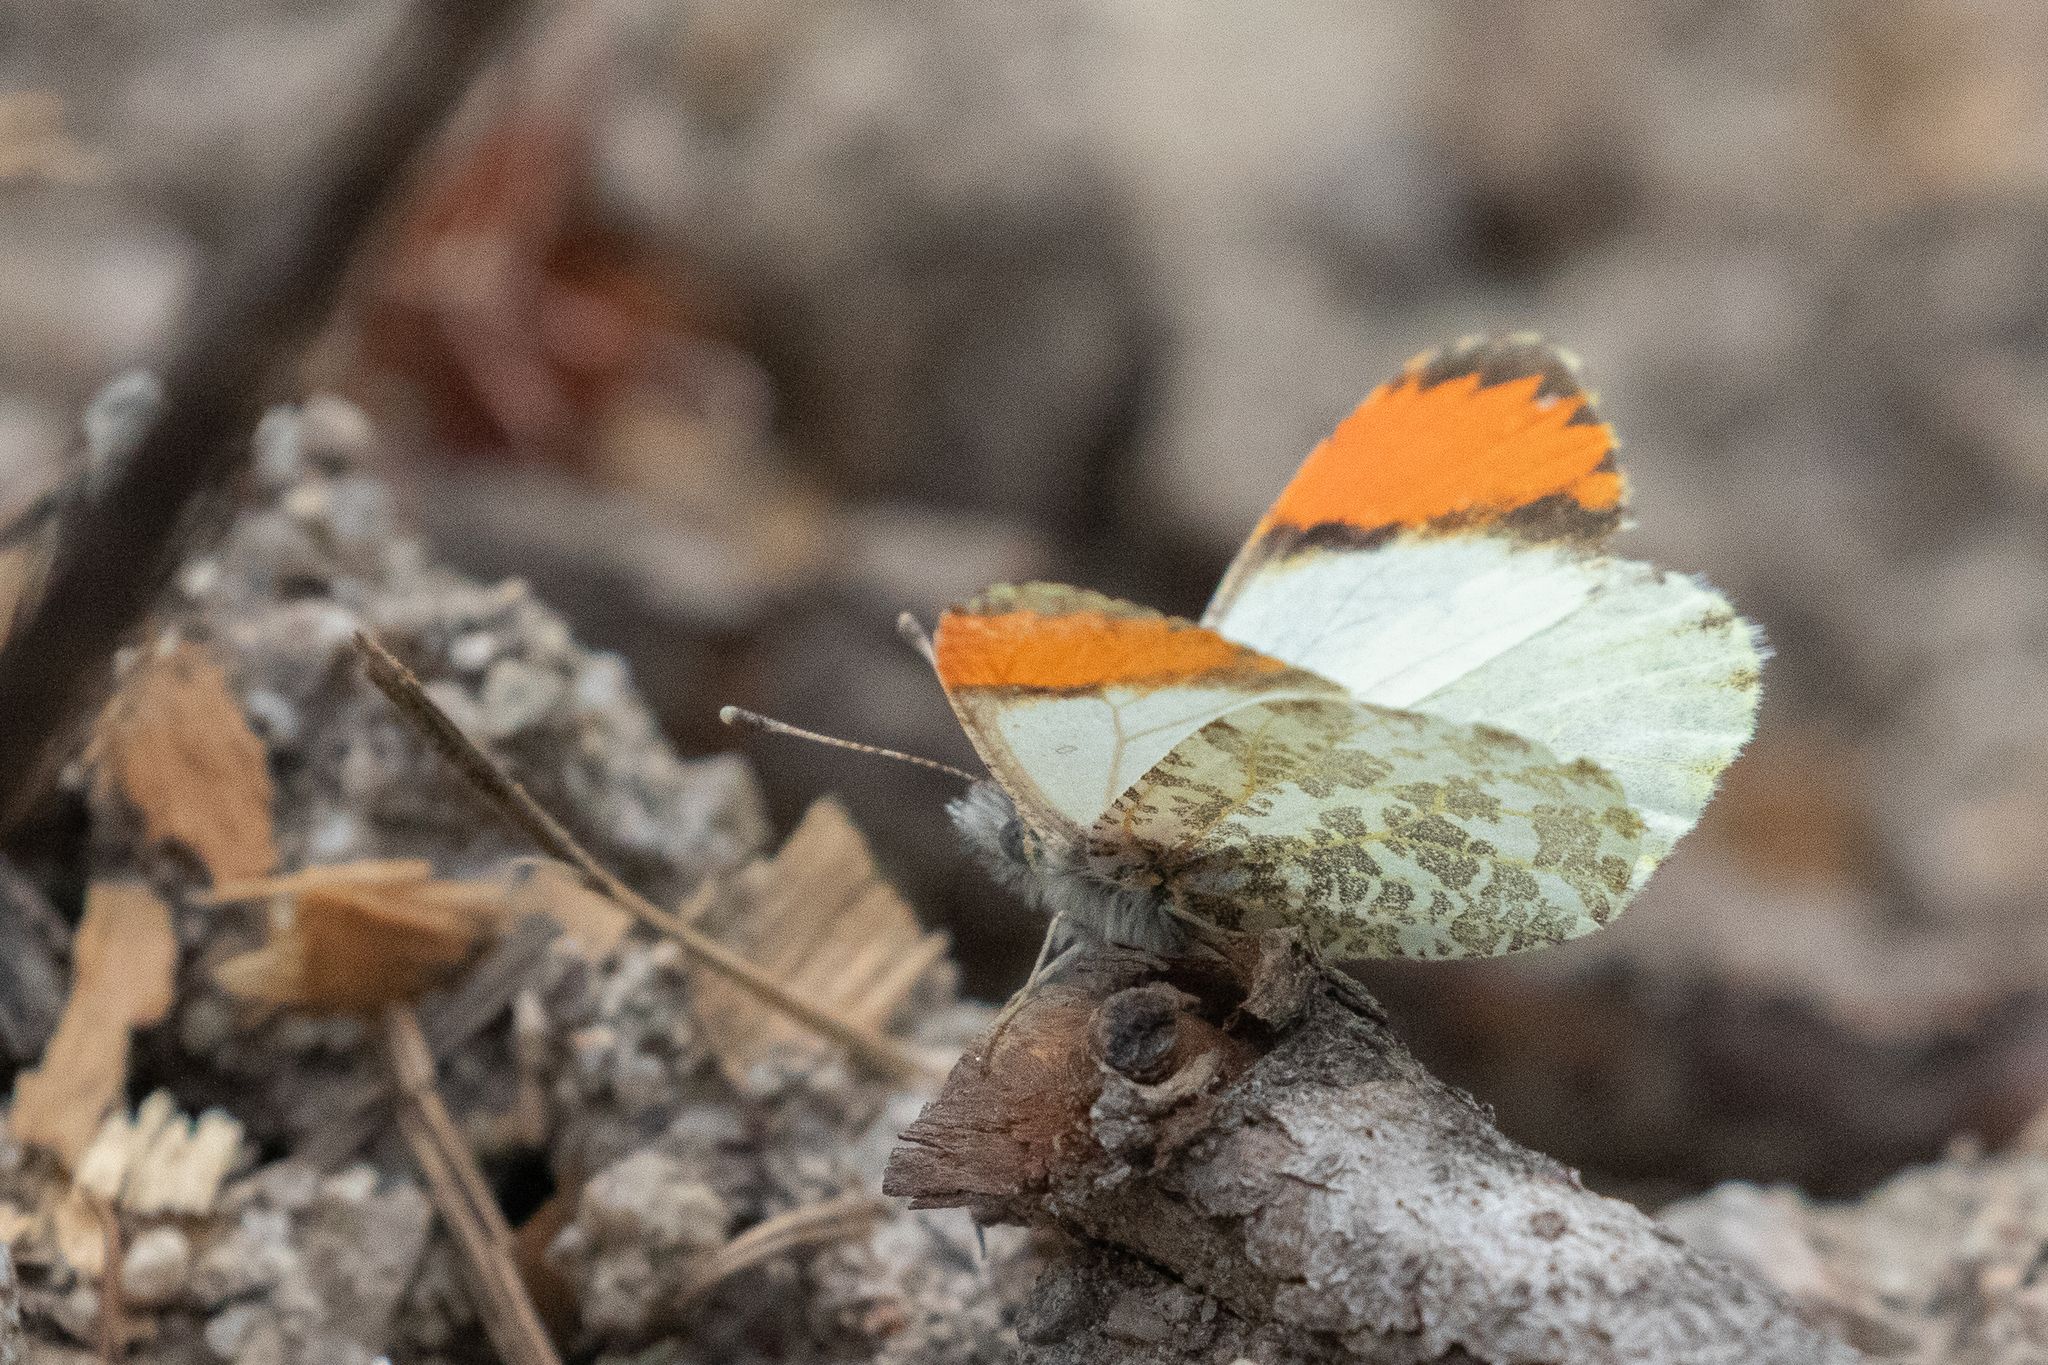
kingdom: Animalia
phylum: Arthropoda
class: Insecta
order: Lepidoptera
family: Pieridae
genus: Anthocharis
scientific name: Anthocharis julia
